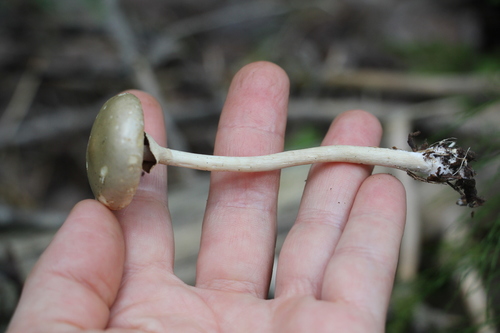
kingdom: Fungi
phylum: Basidiomycota
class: Agaricomycetes
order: Agaricales
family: Strophariaceae
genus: Agrocybe
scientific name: Agrocybe praecox
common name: Spring fieldcap
